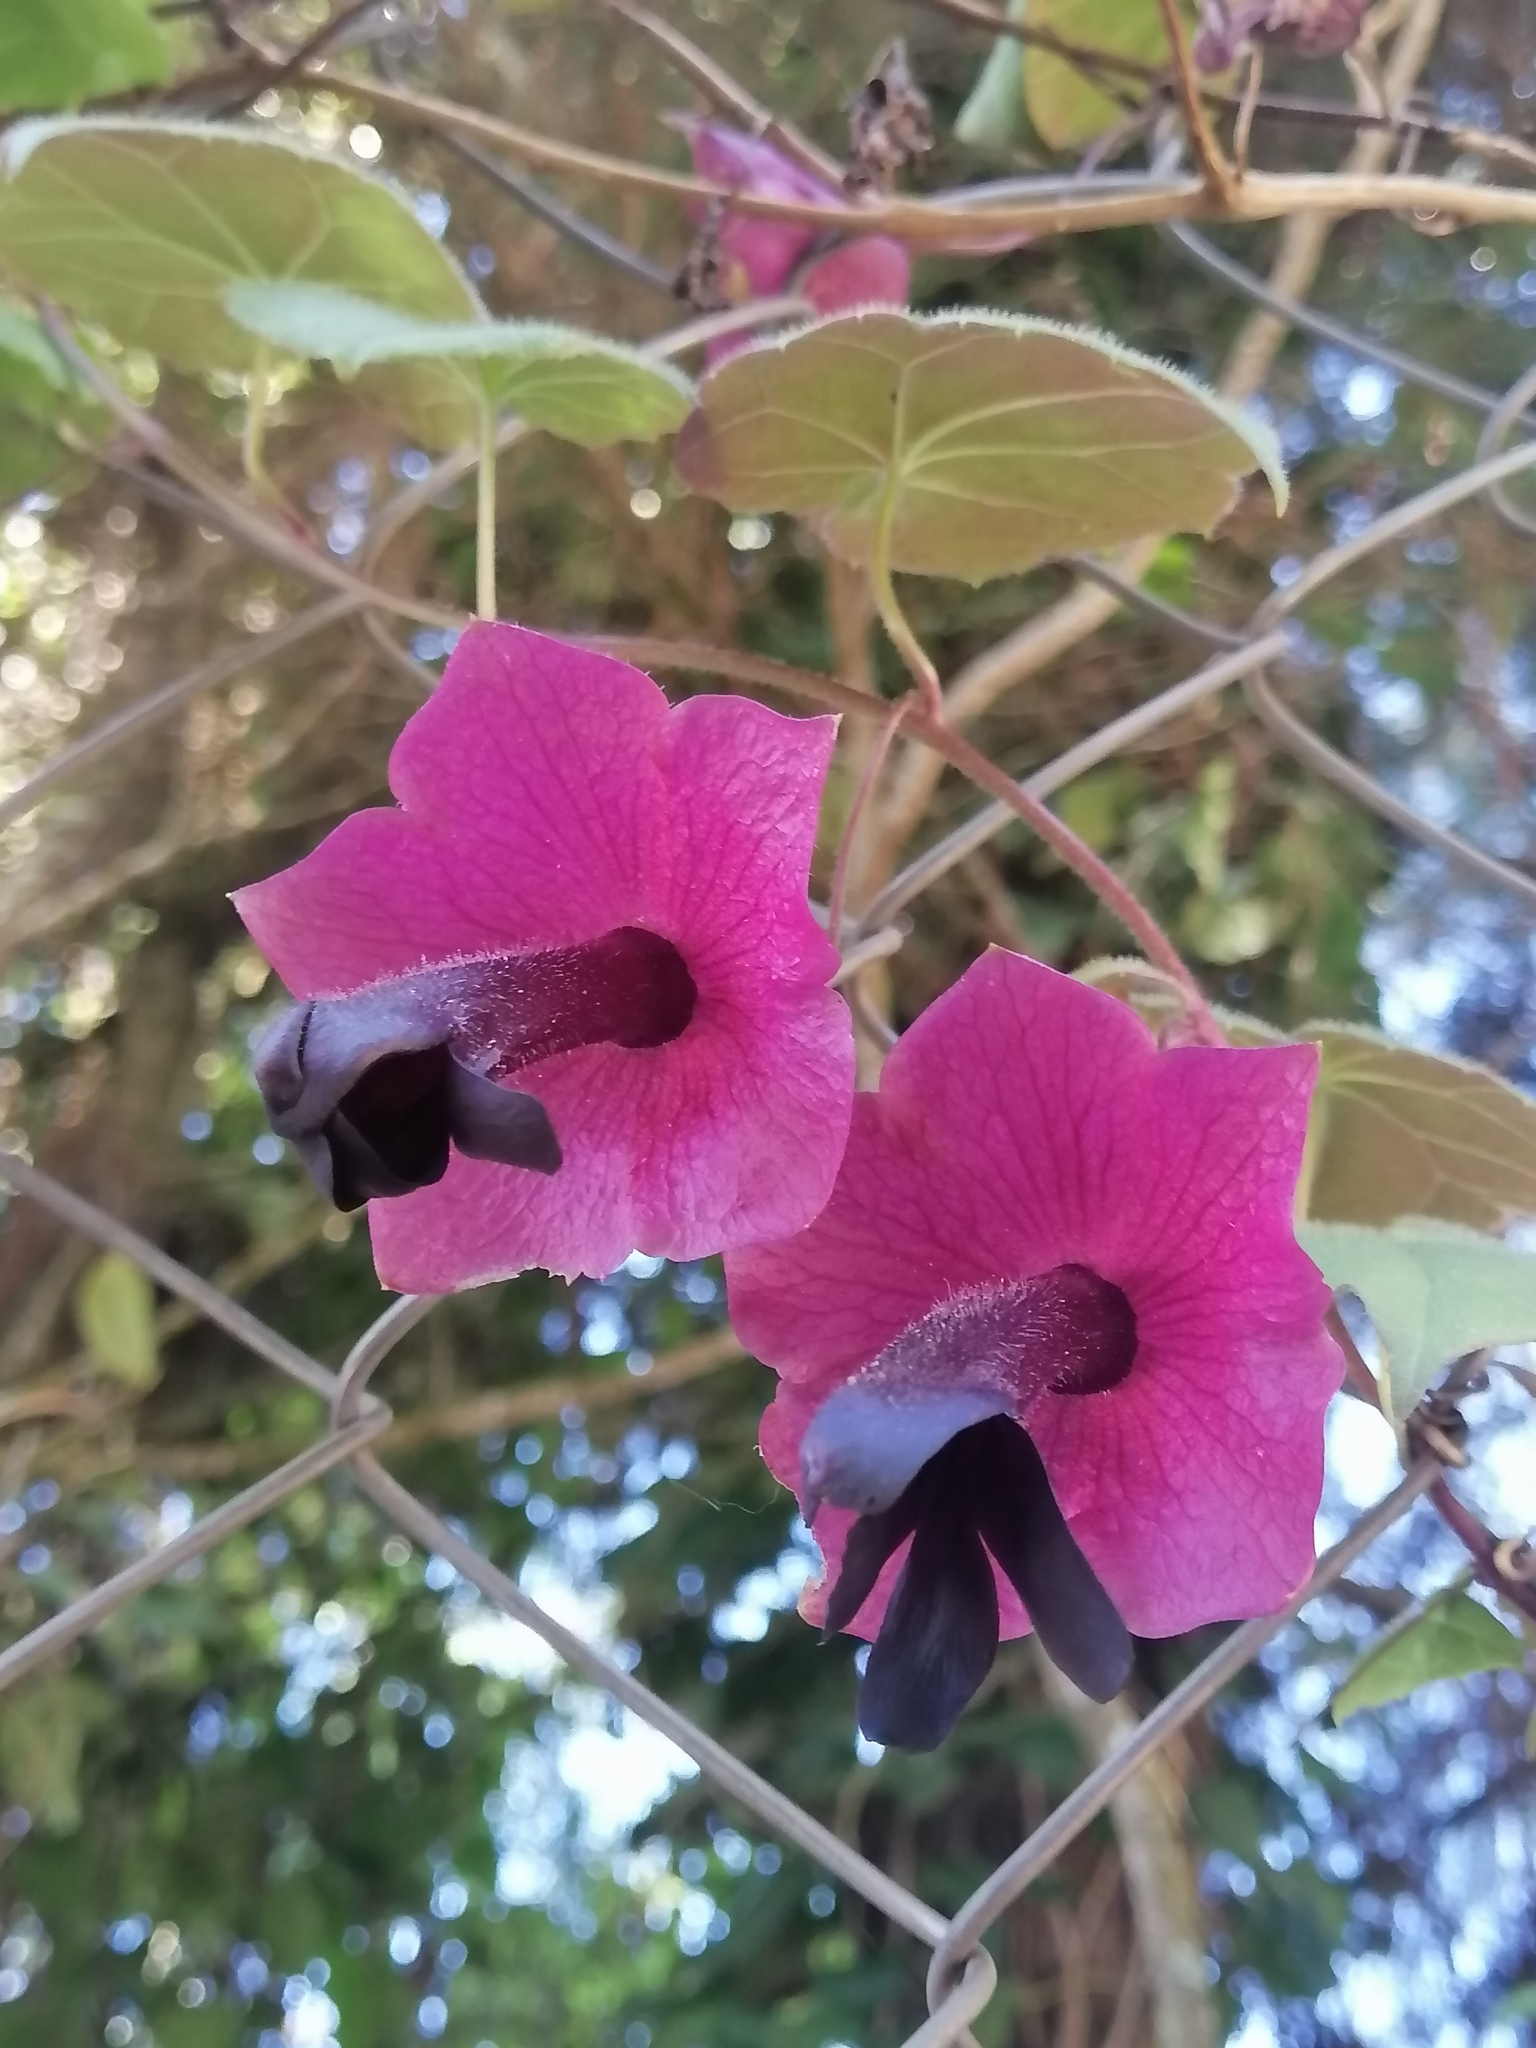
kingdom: Plantae
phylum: Tracheophyta
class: Magnoliopsida
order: Lamiales
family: Plantaginaceae
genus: Rhodochiton
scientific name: Rhodochiton atrosanguineus
